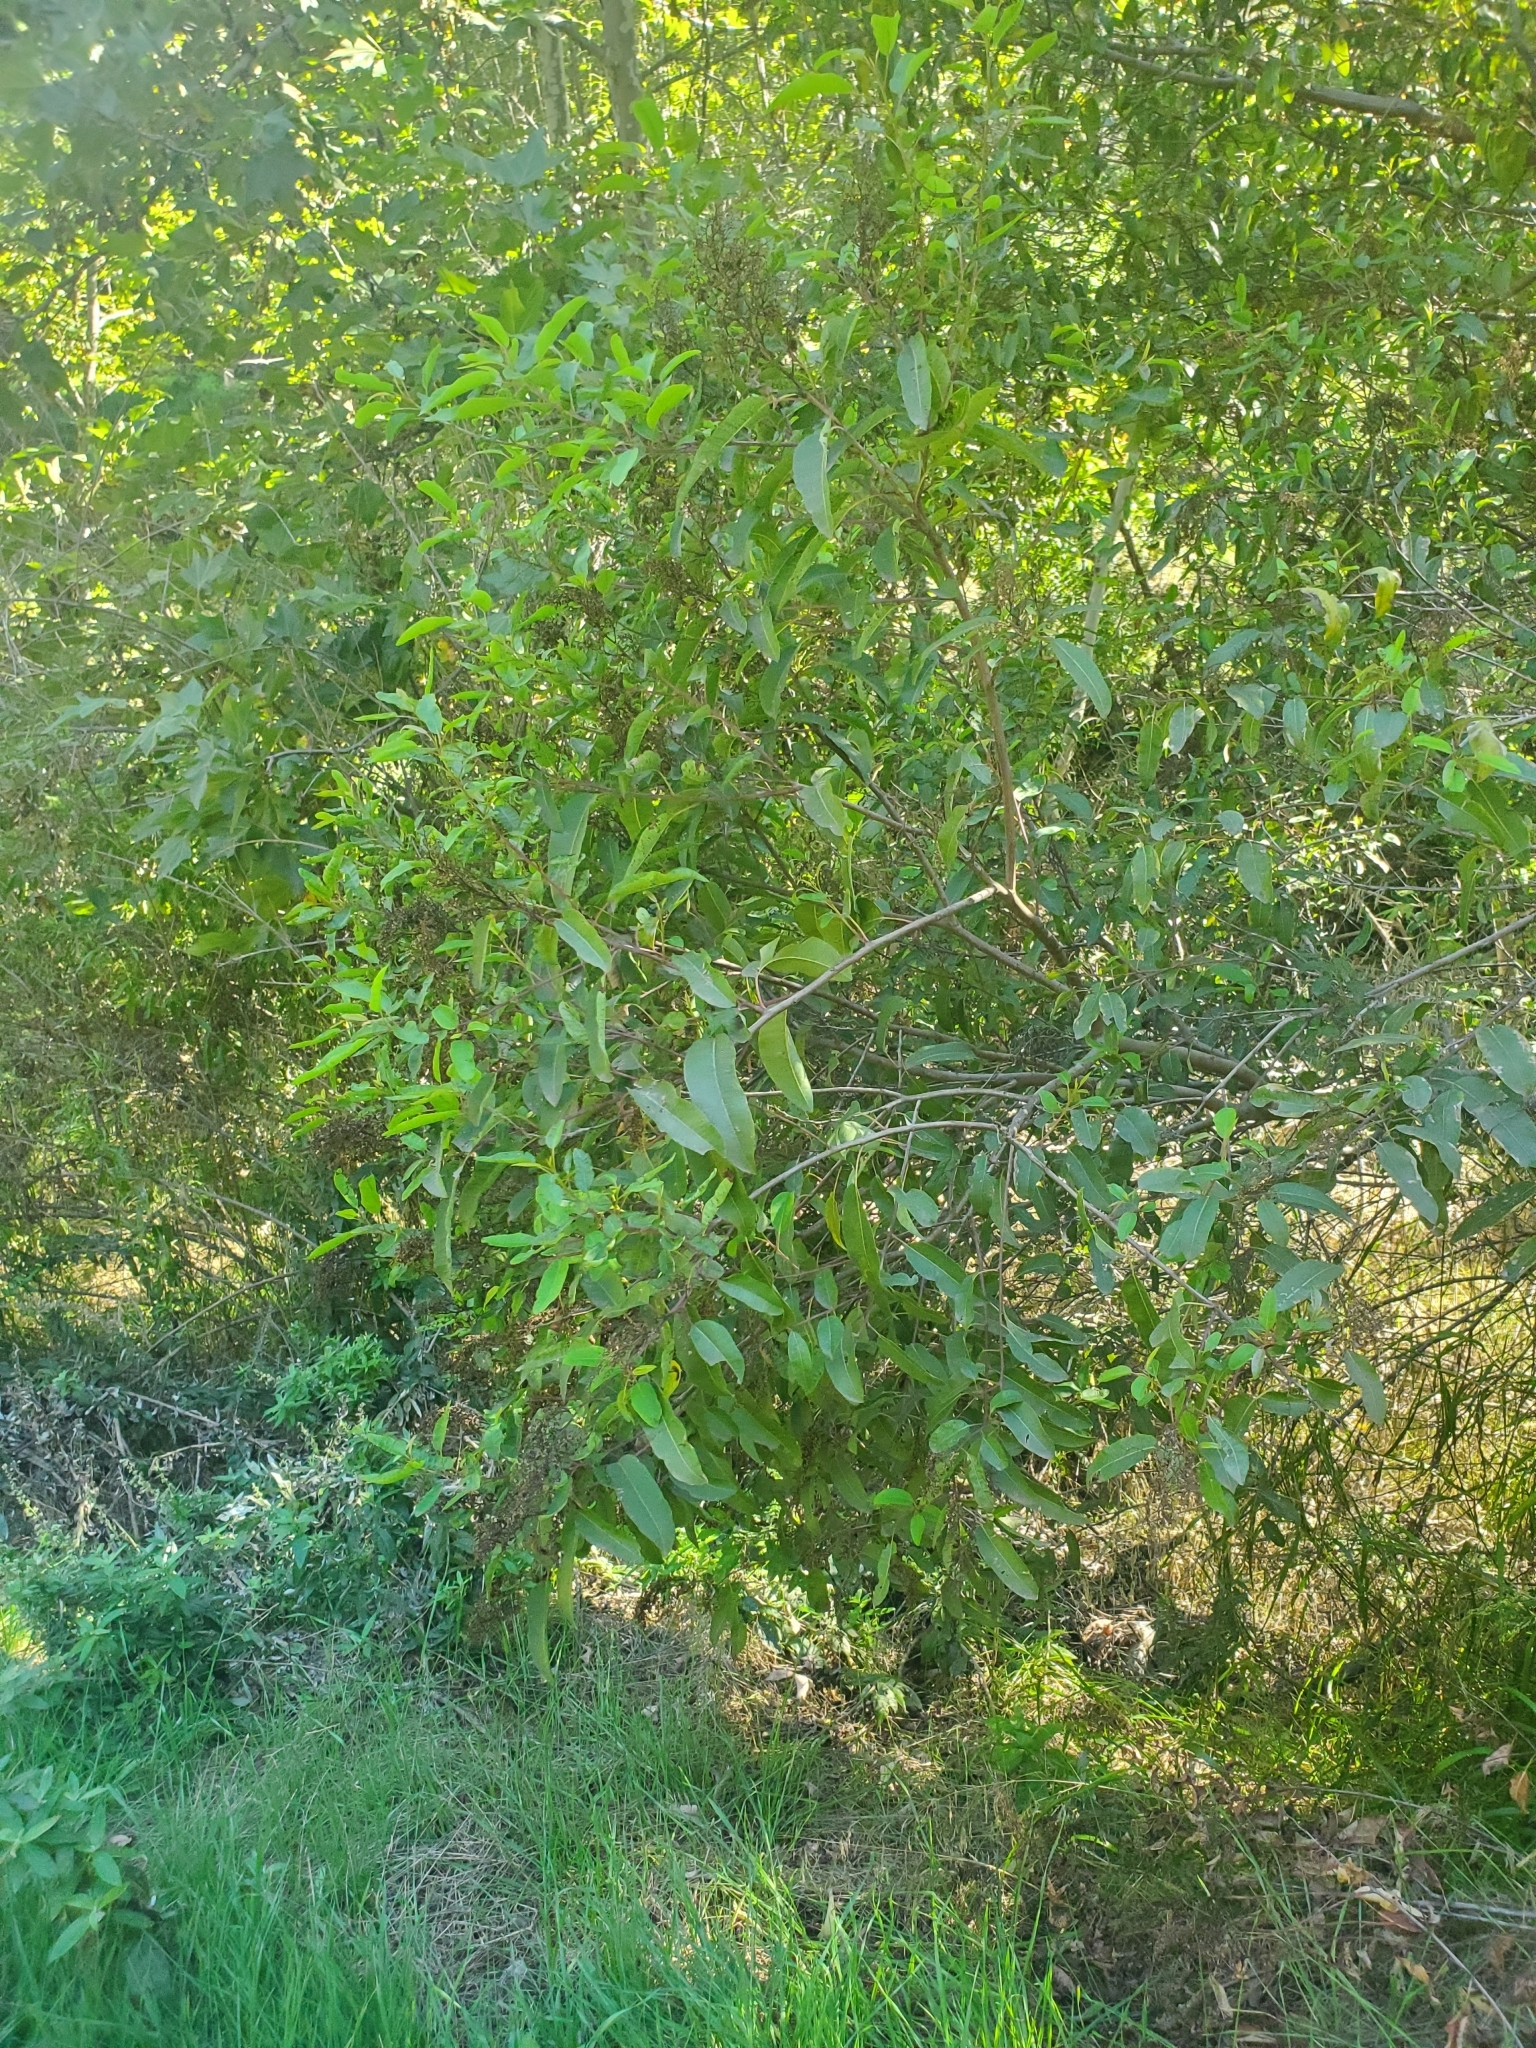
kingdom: Plantae
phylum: Tracheophyta
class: Magnoliopsida
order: Sapindales
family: Anacardiaceae
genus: Malosma
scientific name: Malosma laurina
